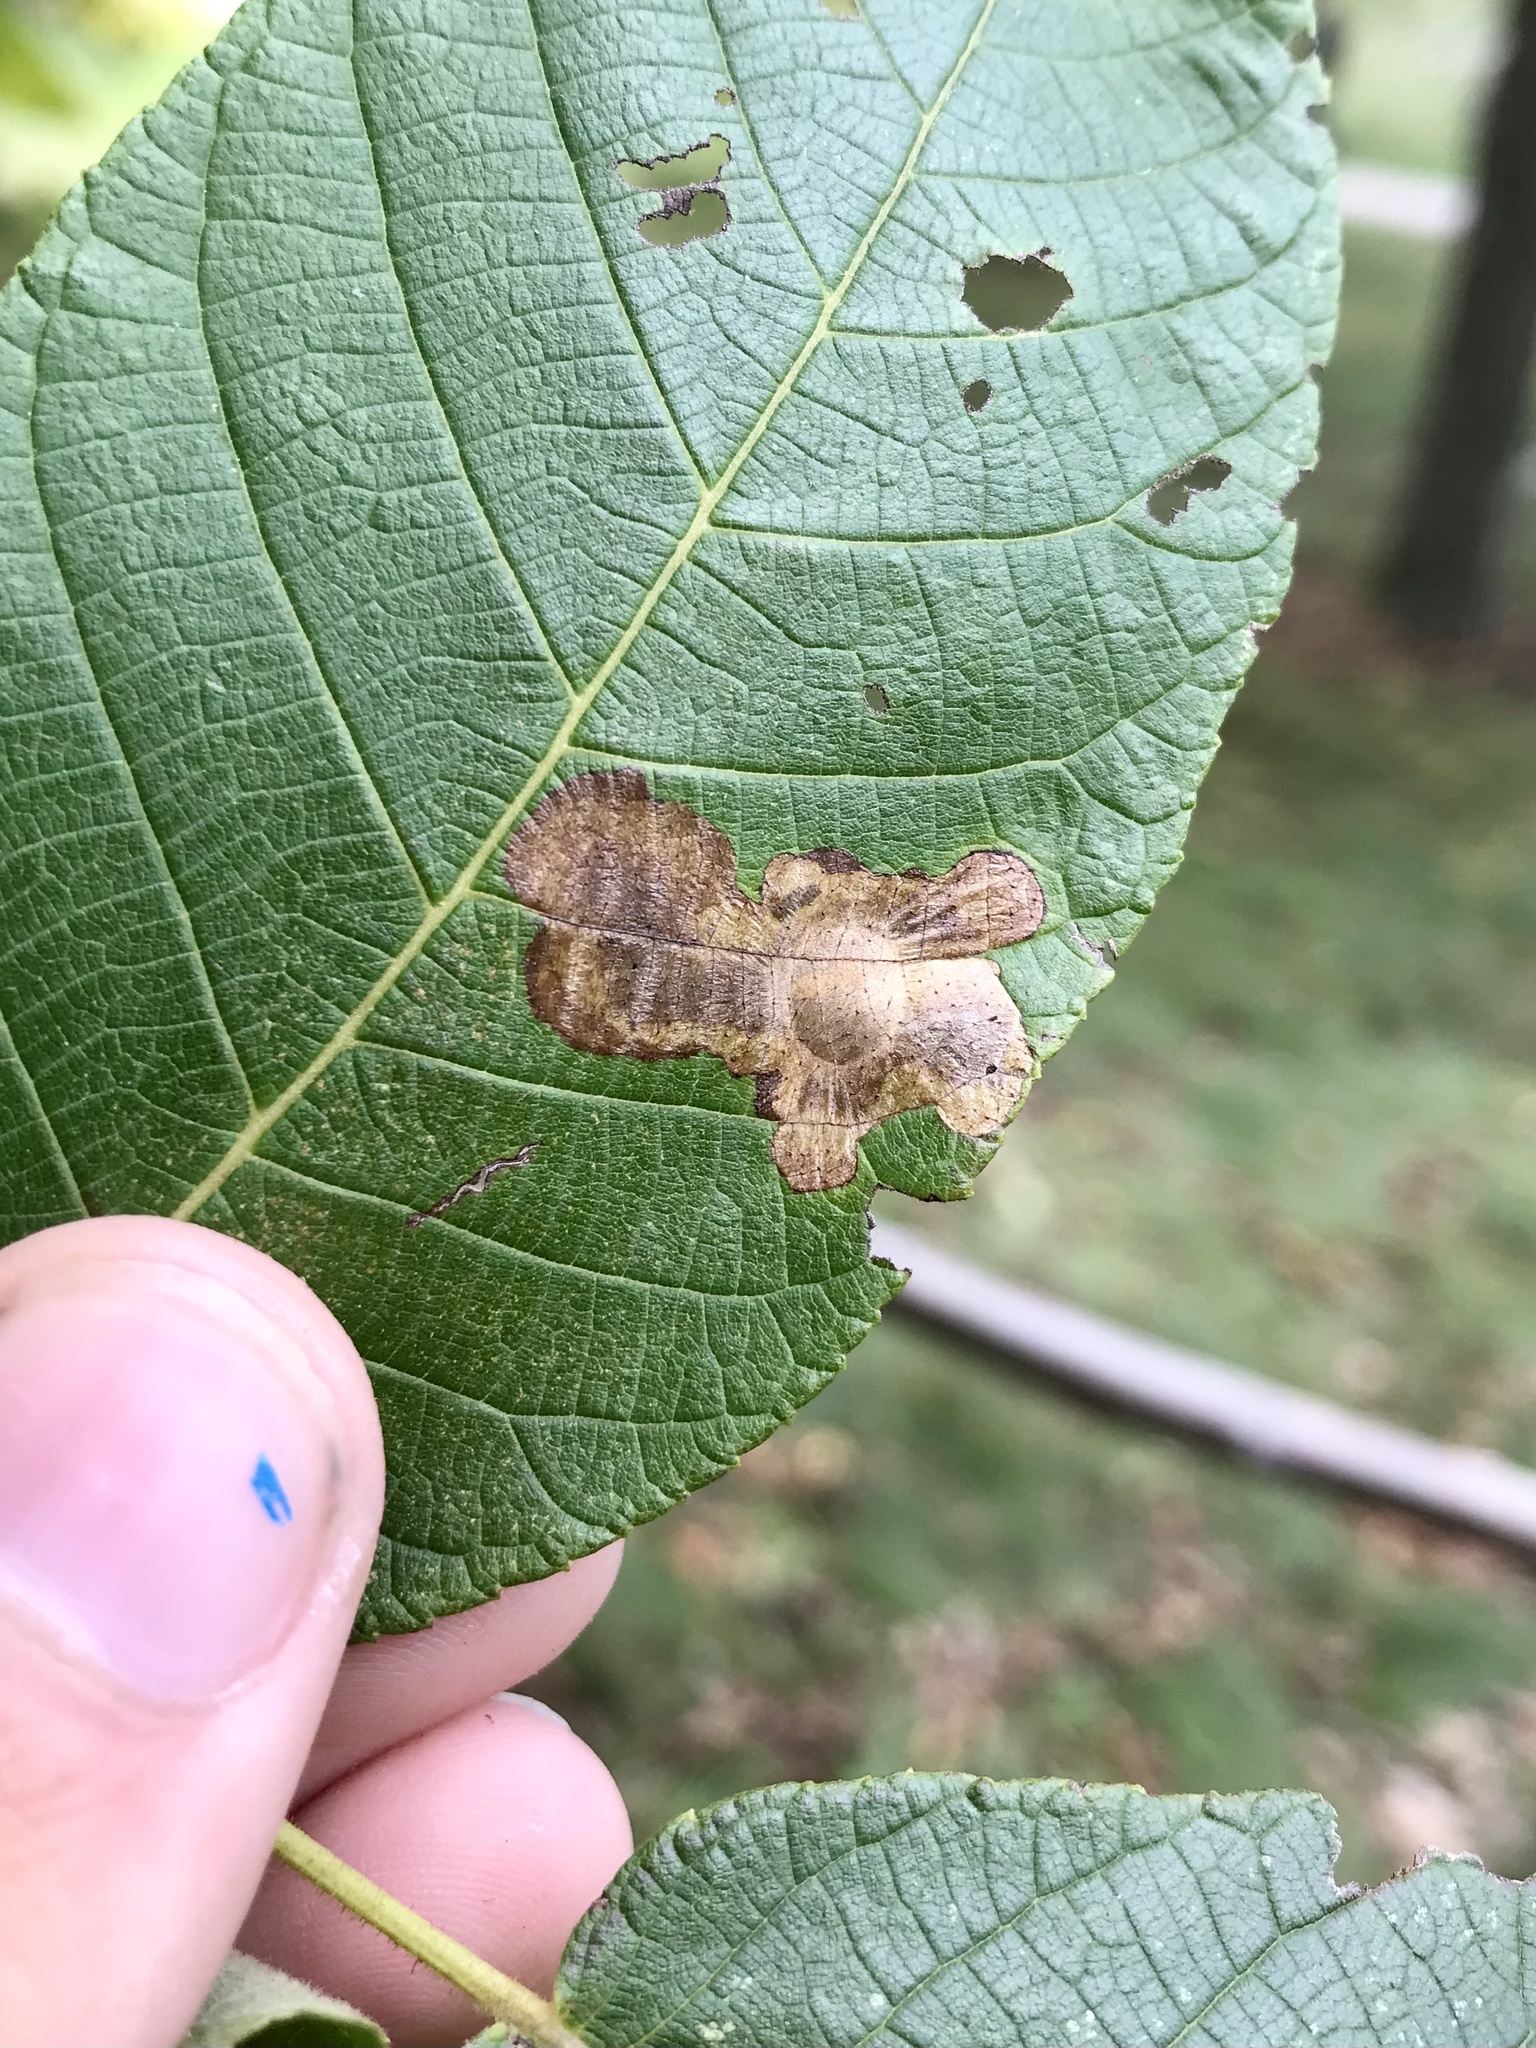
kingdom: Animalia
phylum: Arthropoda
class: Insecta
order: Lepidoptera
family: Gracillariidae
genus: Cameraria
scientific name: Cameraria caryaefoliella
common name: Pecan leafminer moth
